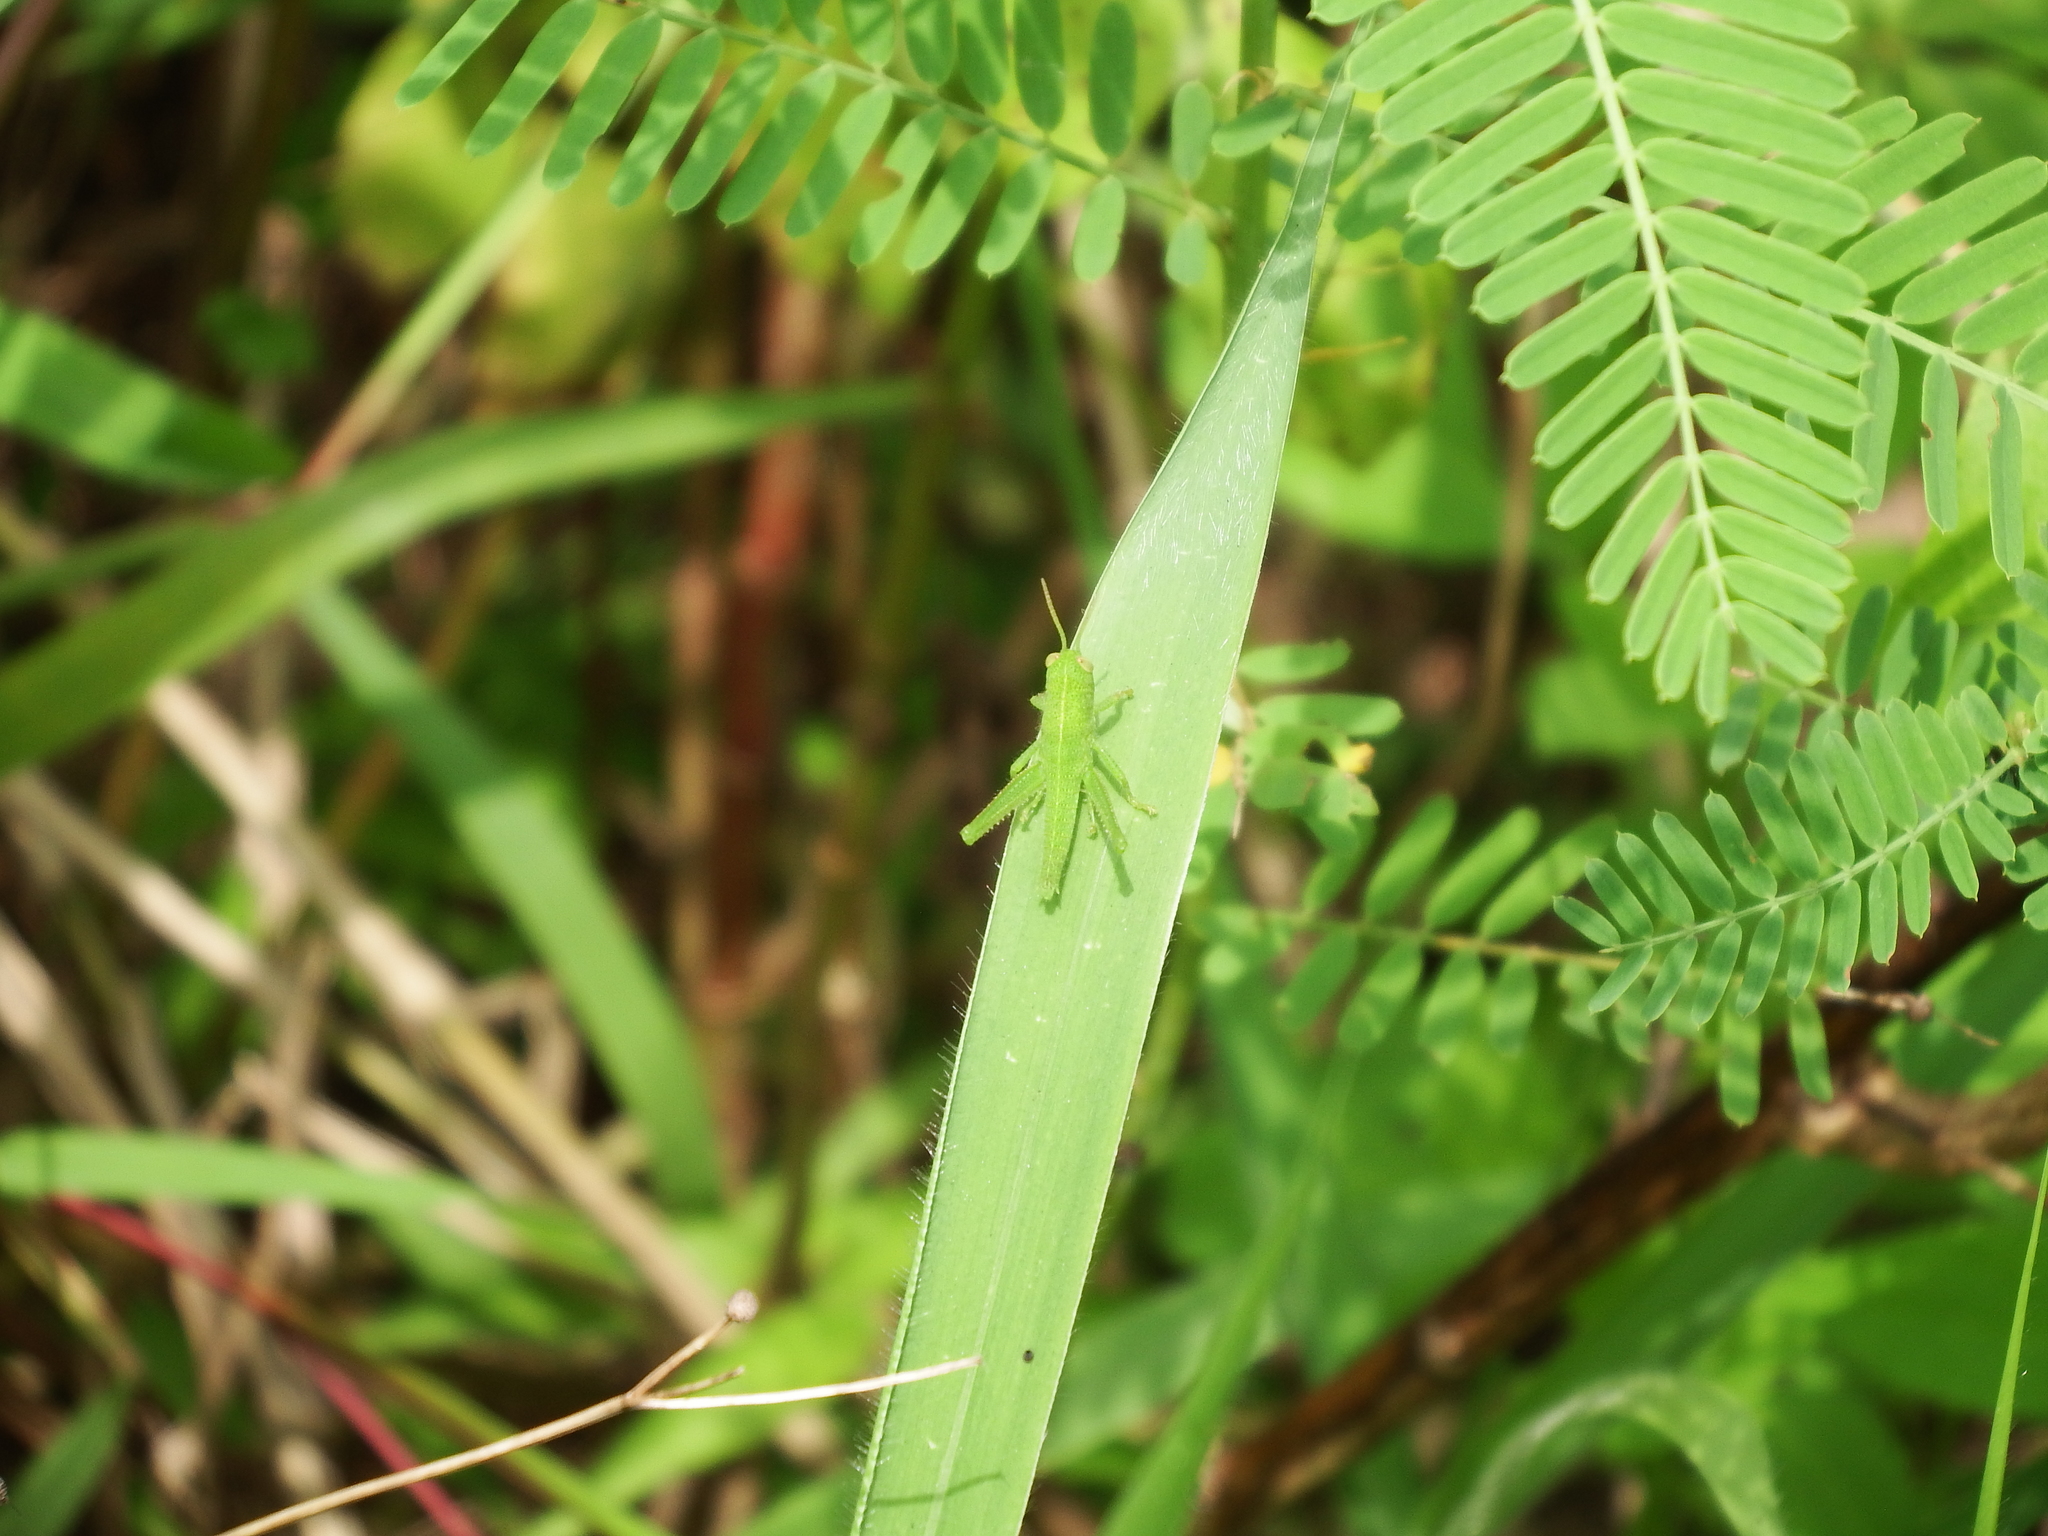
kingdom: Animalia
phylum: Arthropoda
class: Insecta
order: Orthoptera
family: Acrididae
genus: Chondracris
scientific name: Chondracris rosea
